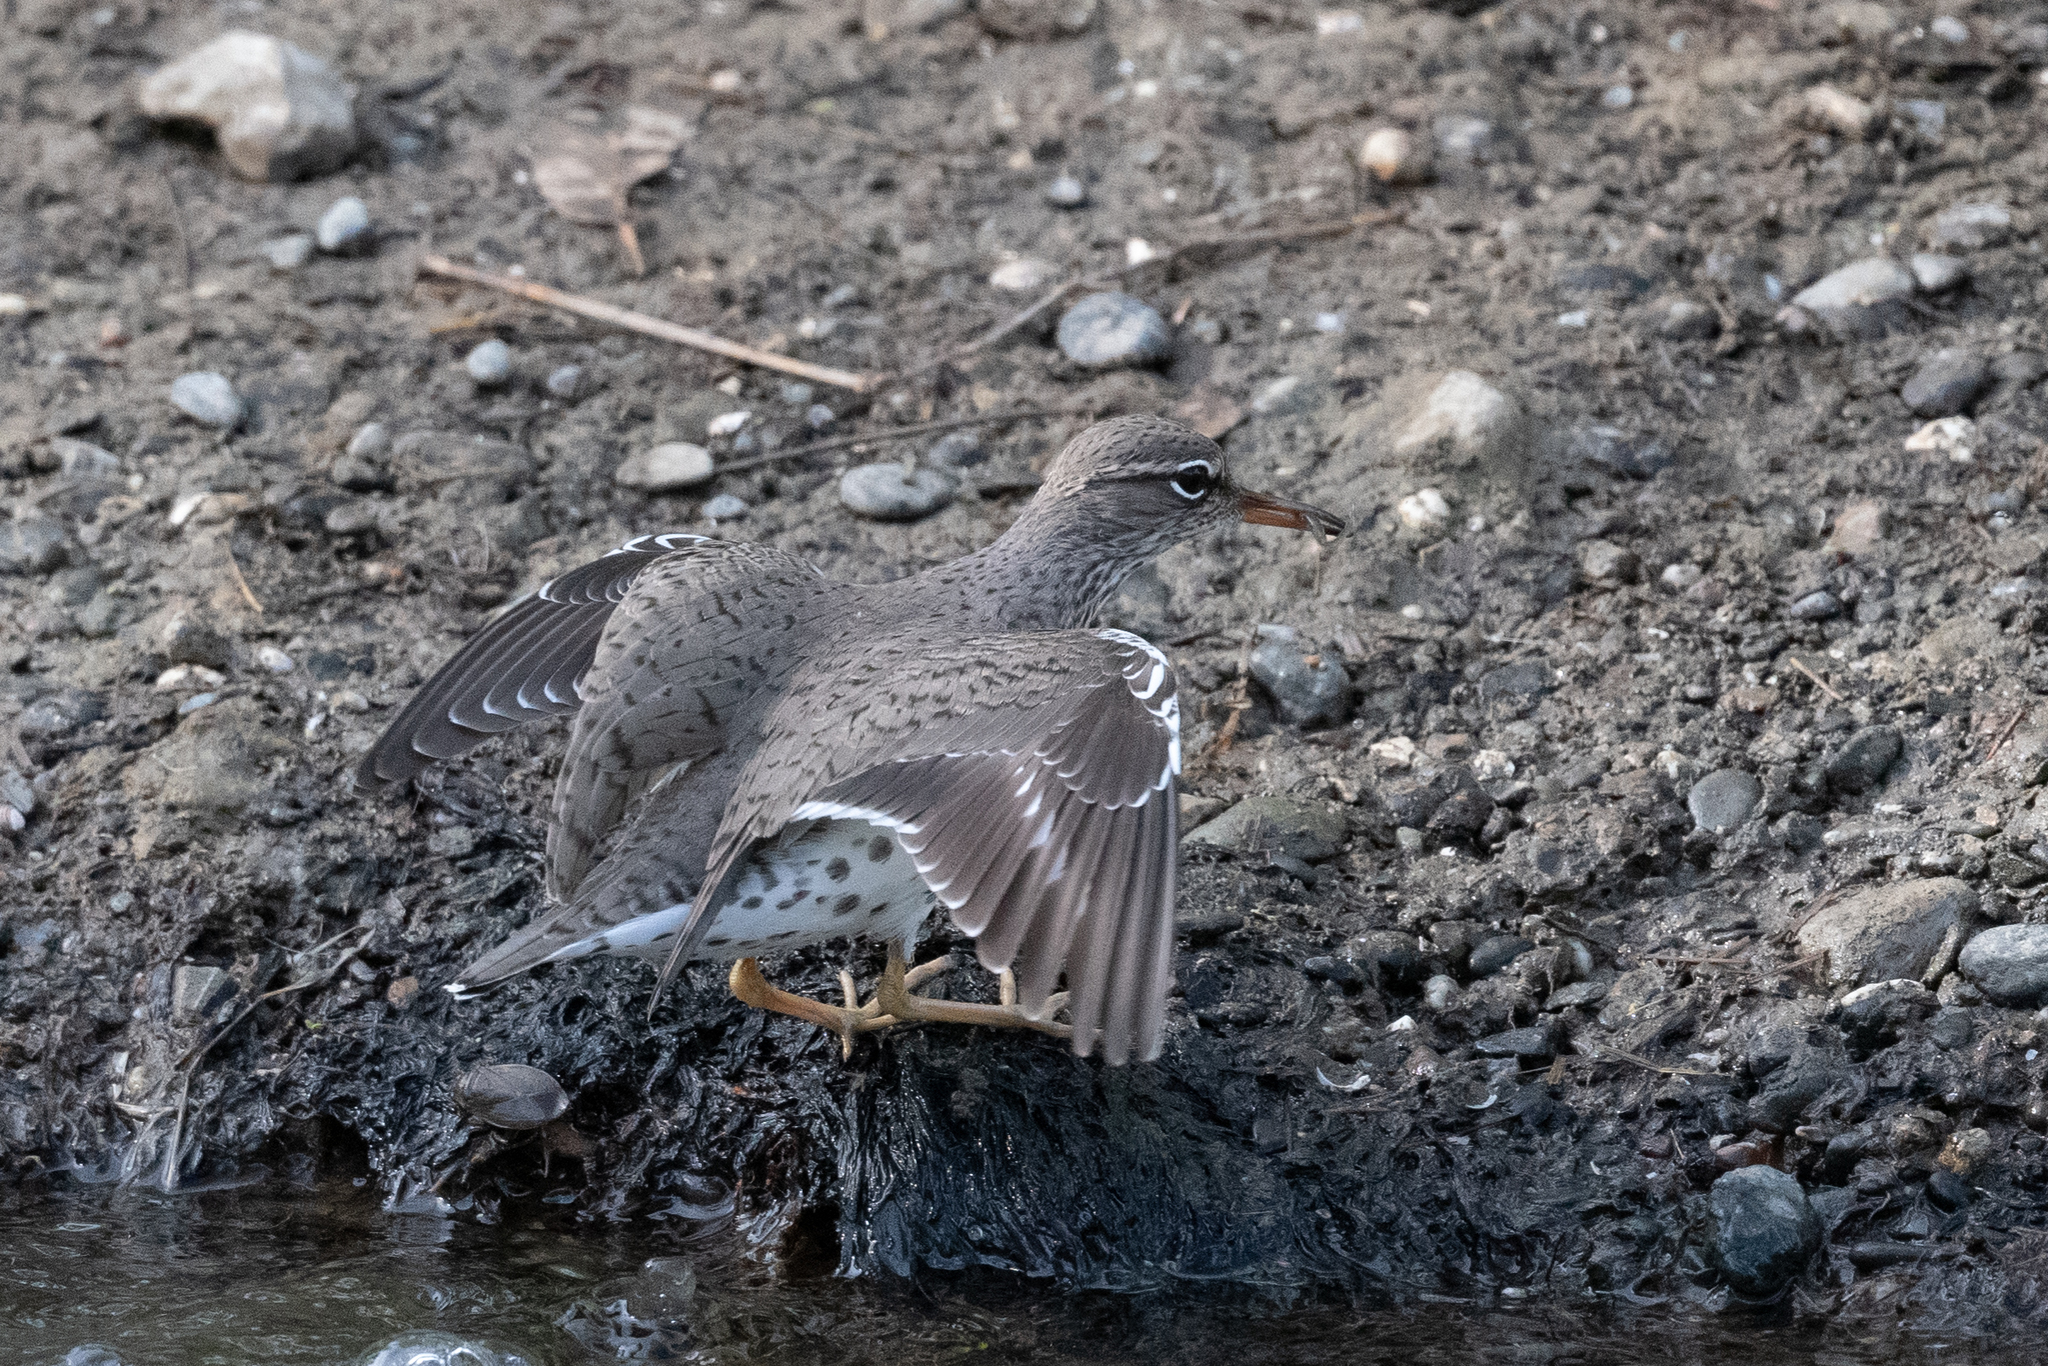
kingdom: Animalia
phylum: Chordata
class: Aves
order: Charadriiformes
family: Scolopacidae
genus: Actitis
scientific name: Actitis macularius
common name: Spotted sandpiper
